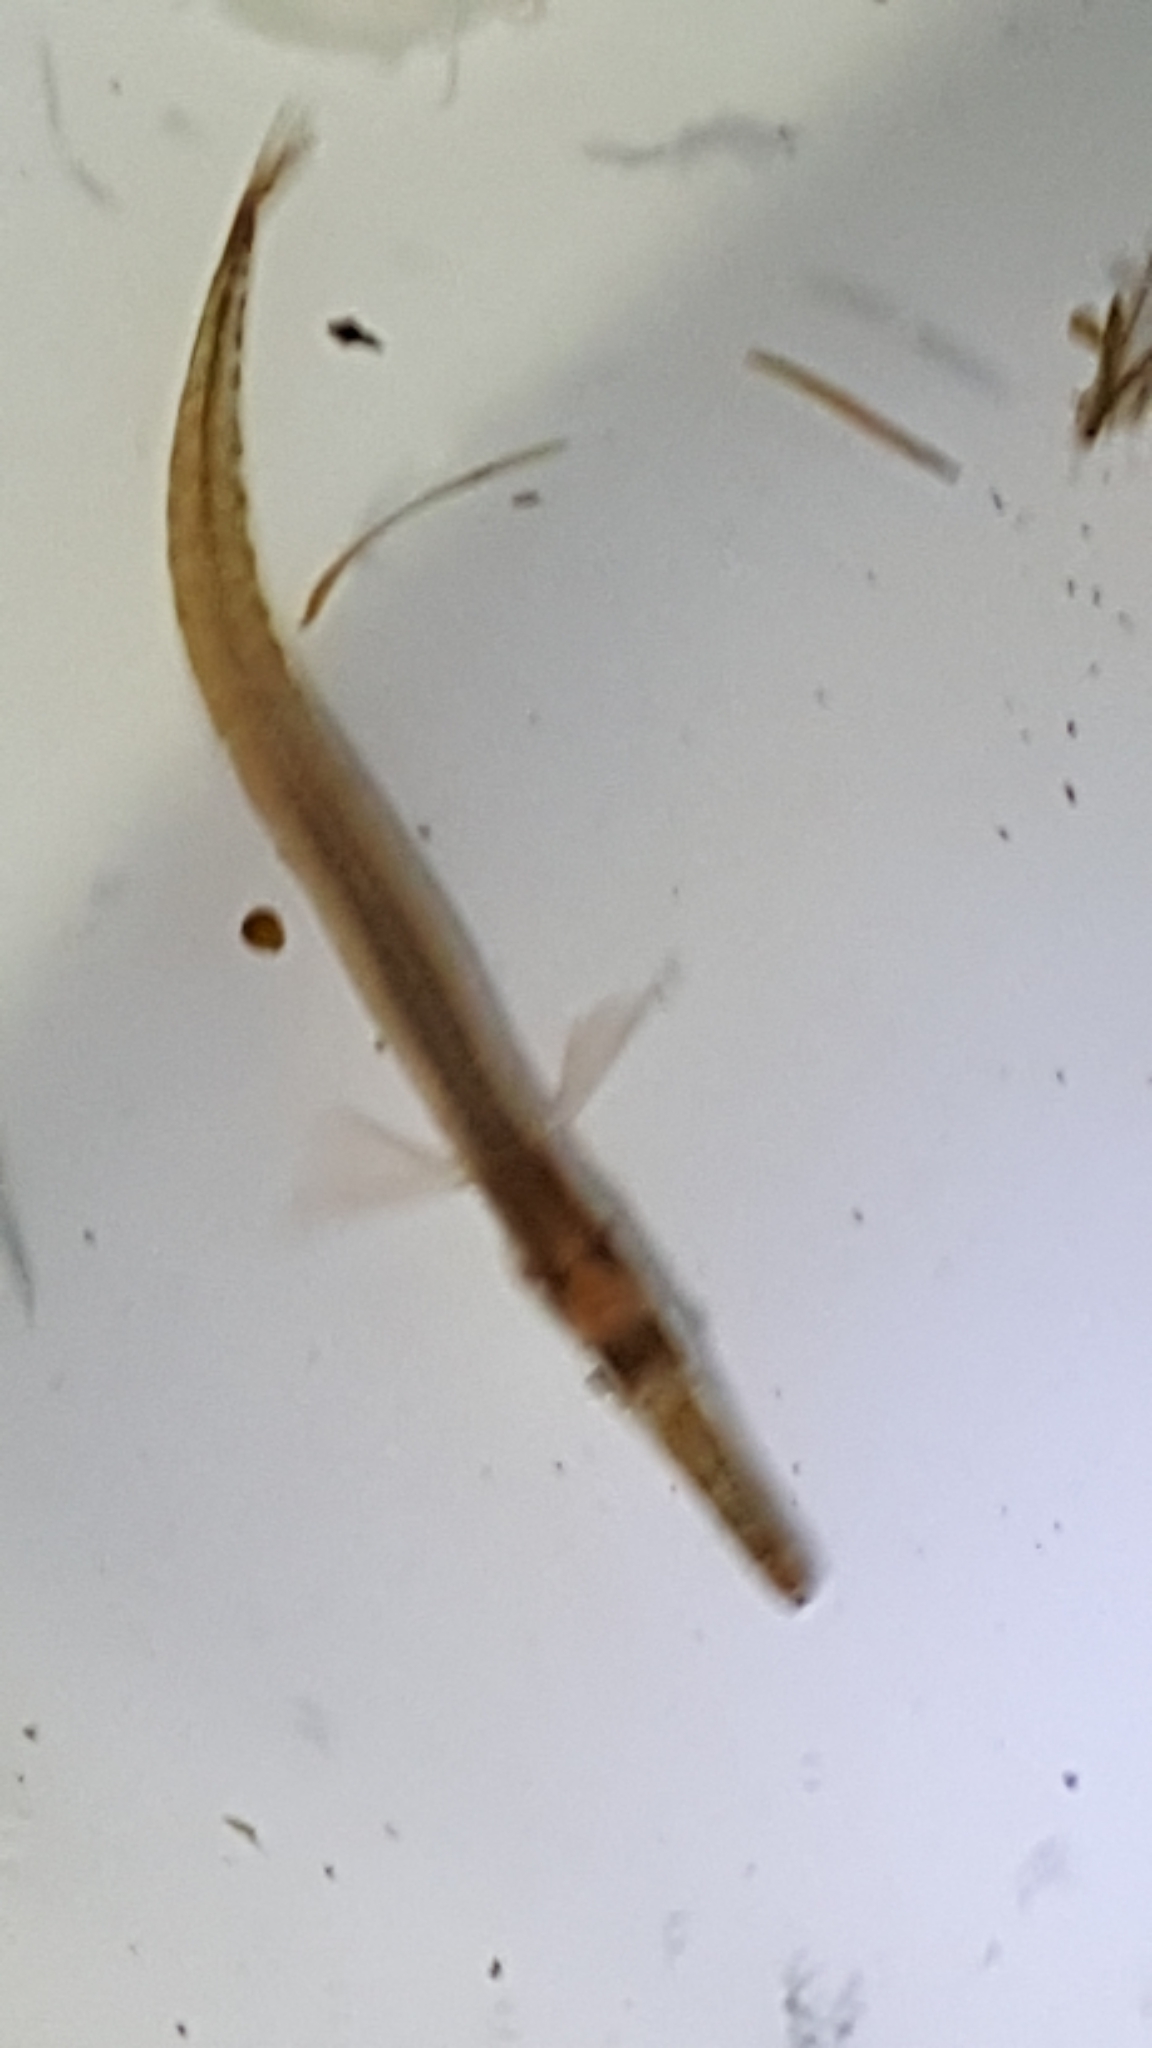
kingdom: Animalia
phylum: Chordata
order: Gasterosteiformes
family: Aulorhynchidae
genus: Aulorhynchus
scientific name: Aulorhynchus flavidus
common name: Tube-snout
